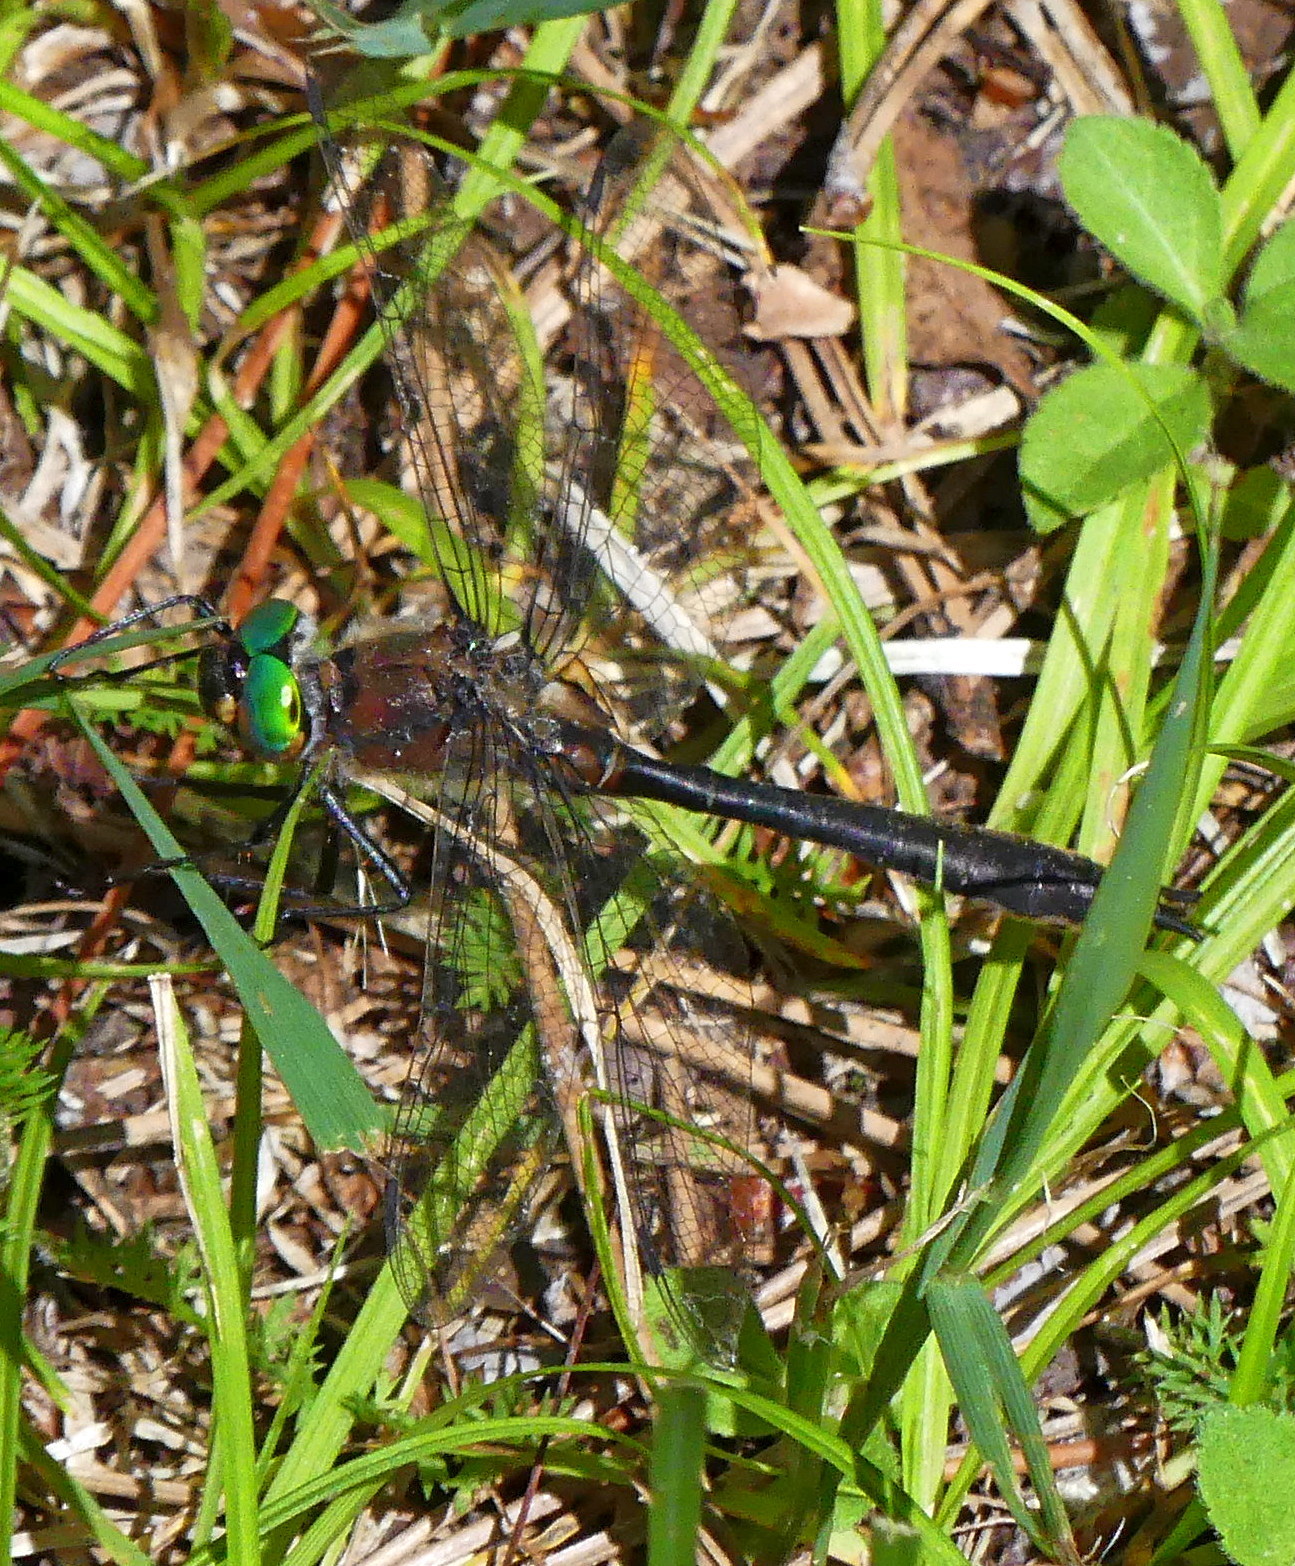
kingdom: Animalia
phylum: Arthropoda
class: Insecta
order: Odonata
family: Corduliidae
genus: Dorocordulia
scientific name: Dorocordulia libera
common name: Racket-tailed emerald
